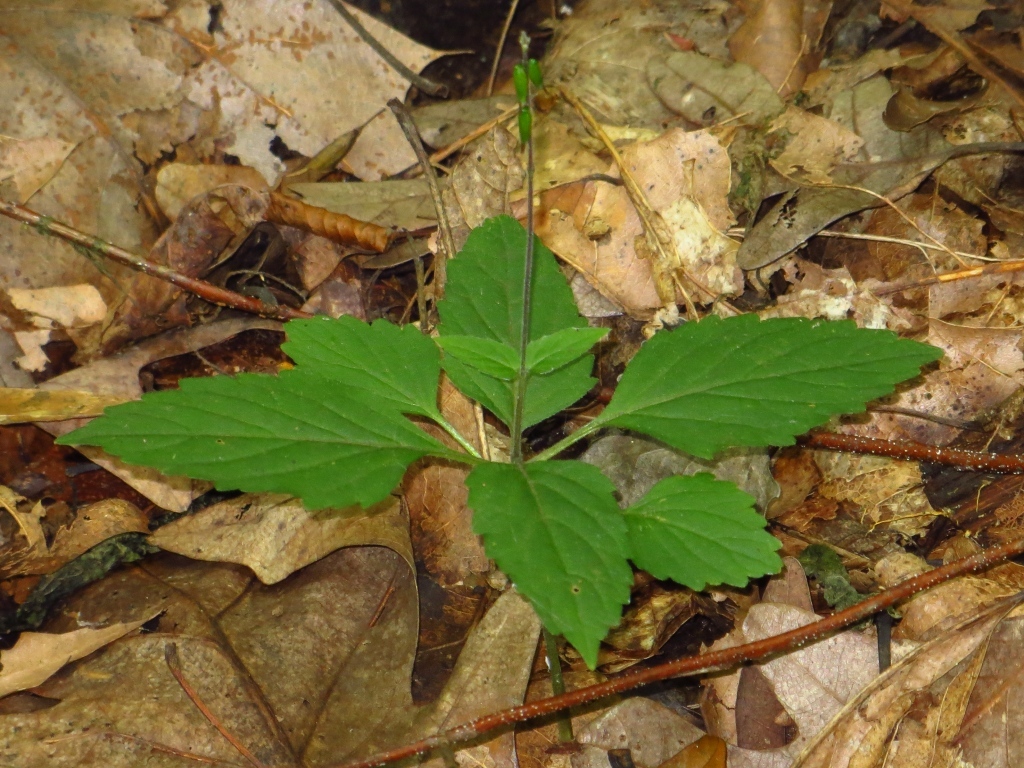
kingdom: Plantae
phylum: Tracheophyta
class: Magnoliopsida
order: Lamiales
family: Phrymaceae
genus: Phryma
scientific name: Phryma leptostachya
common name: American lopseed
